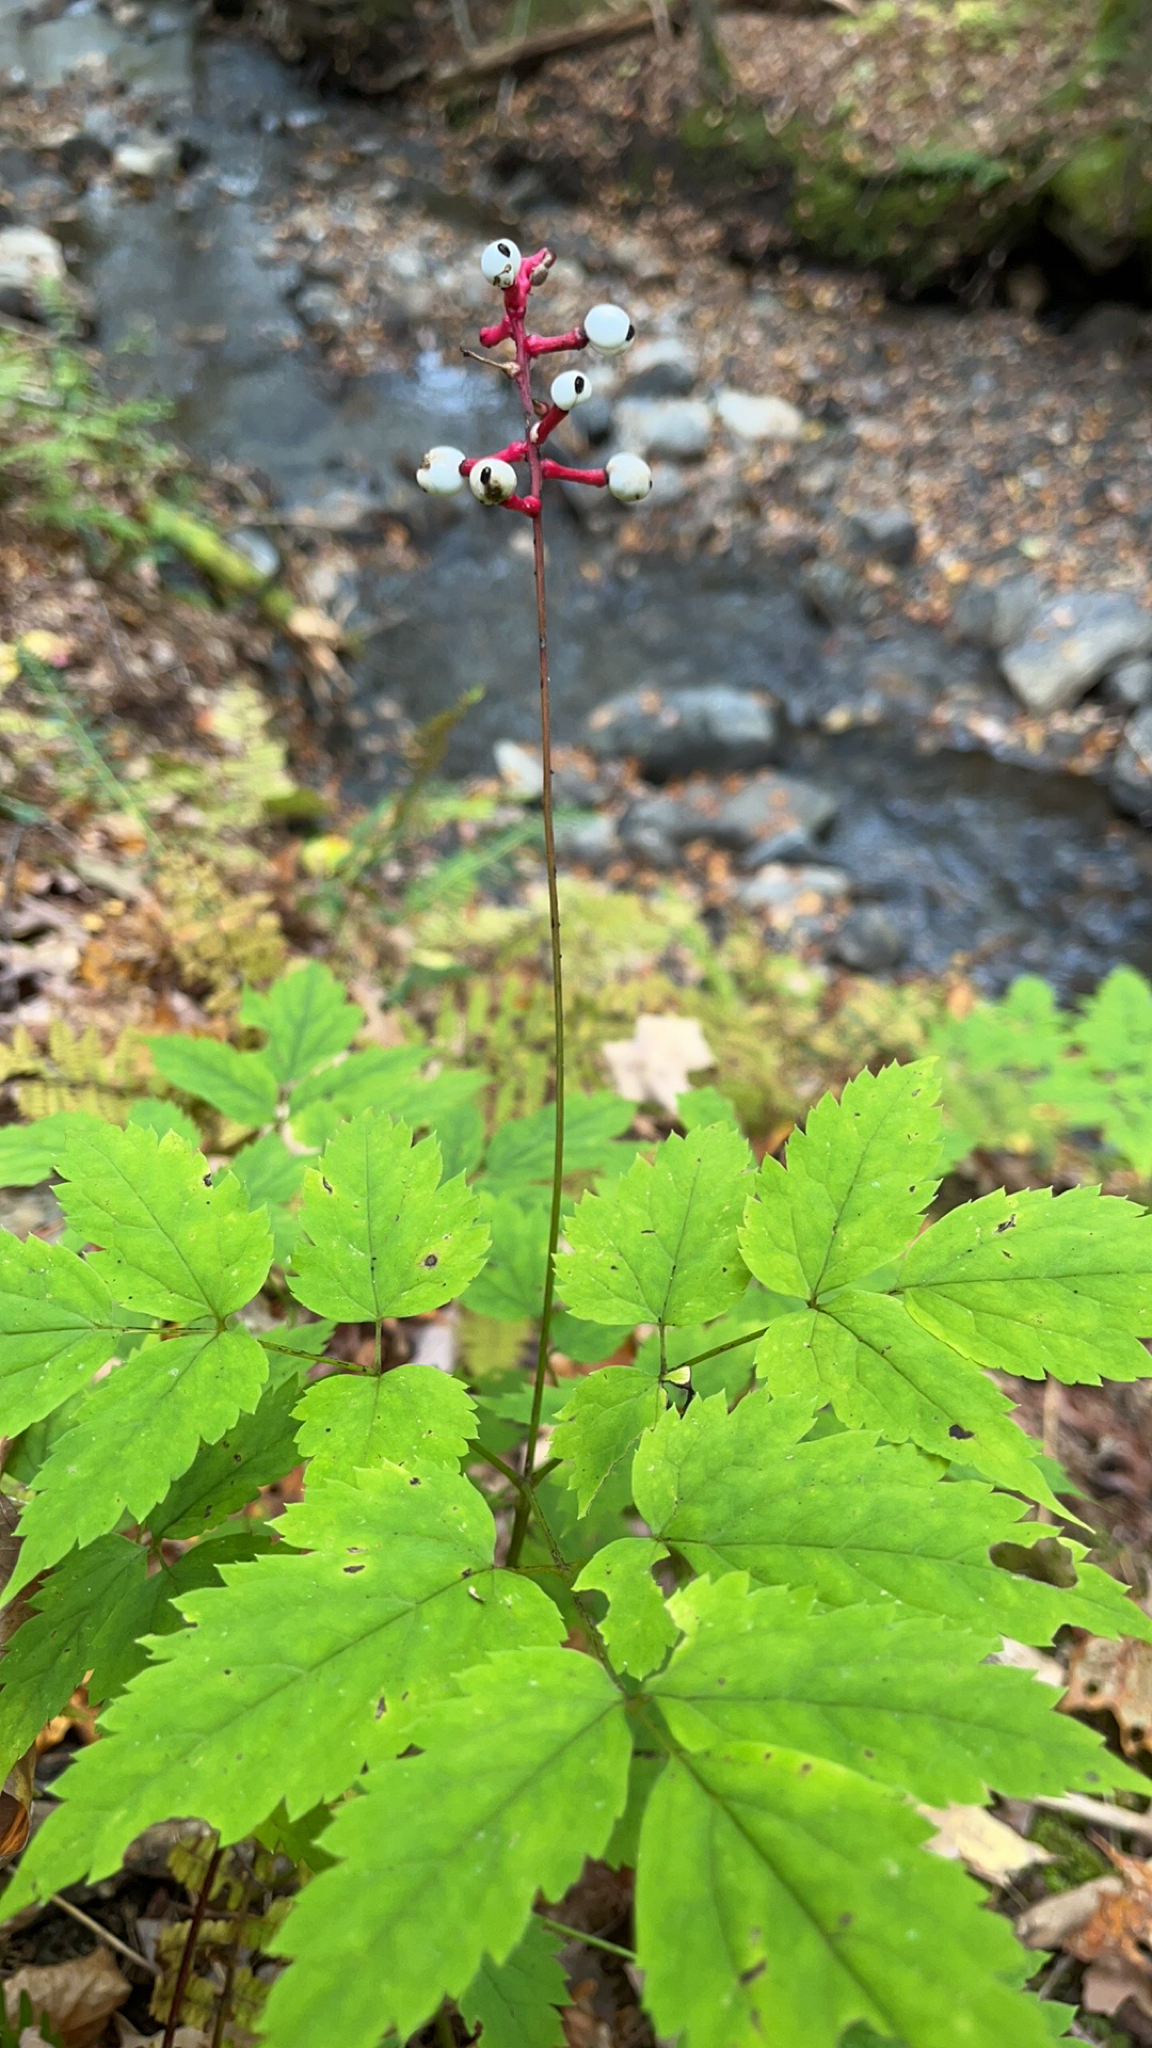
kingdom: Plantae
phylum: Tracheophyta
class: Magnoliopsida
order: Ranunculales
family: Ranunculaceae
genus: Actaea
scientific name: Actaea pachypoda
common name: Doll's-eyes
